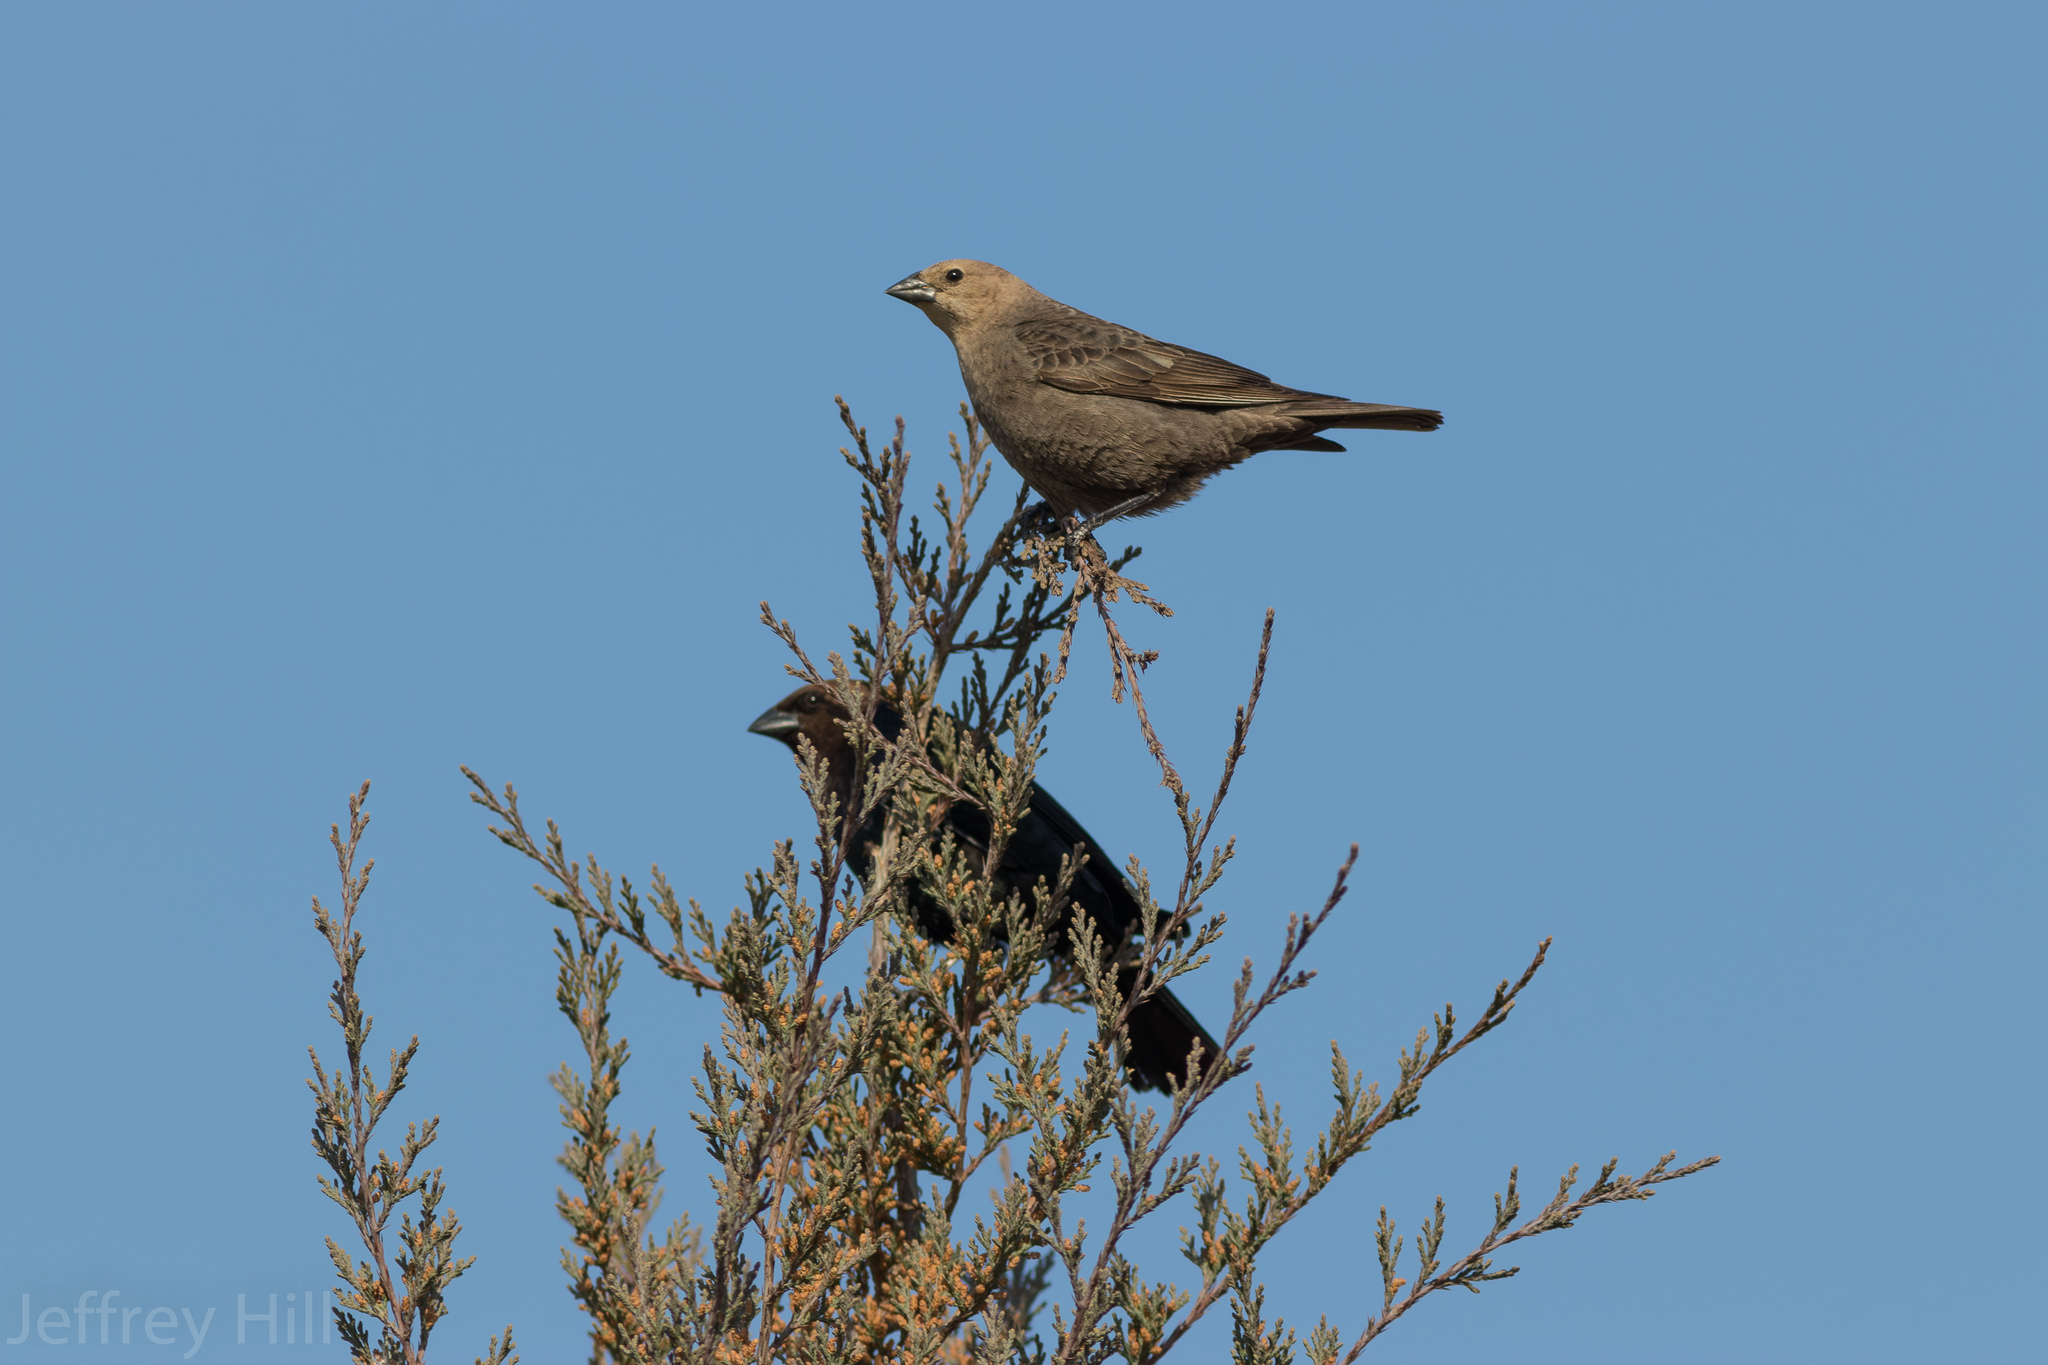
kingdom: Animalia
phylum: Chordata
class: Aves
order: Passeriformes
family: Icteridae
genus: Molothrus
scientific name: Molothrus ater
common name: Brown-headed cowbird
